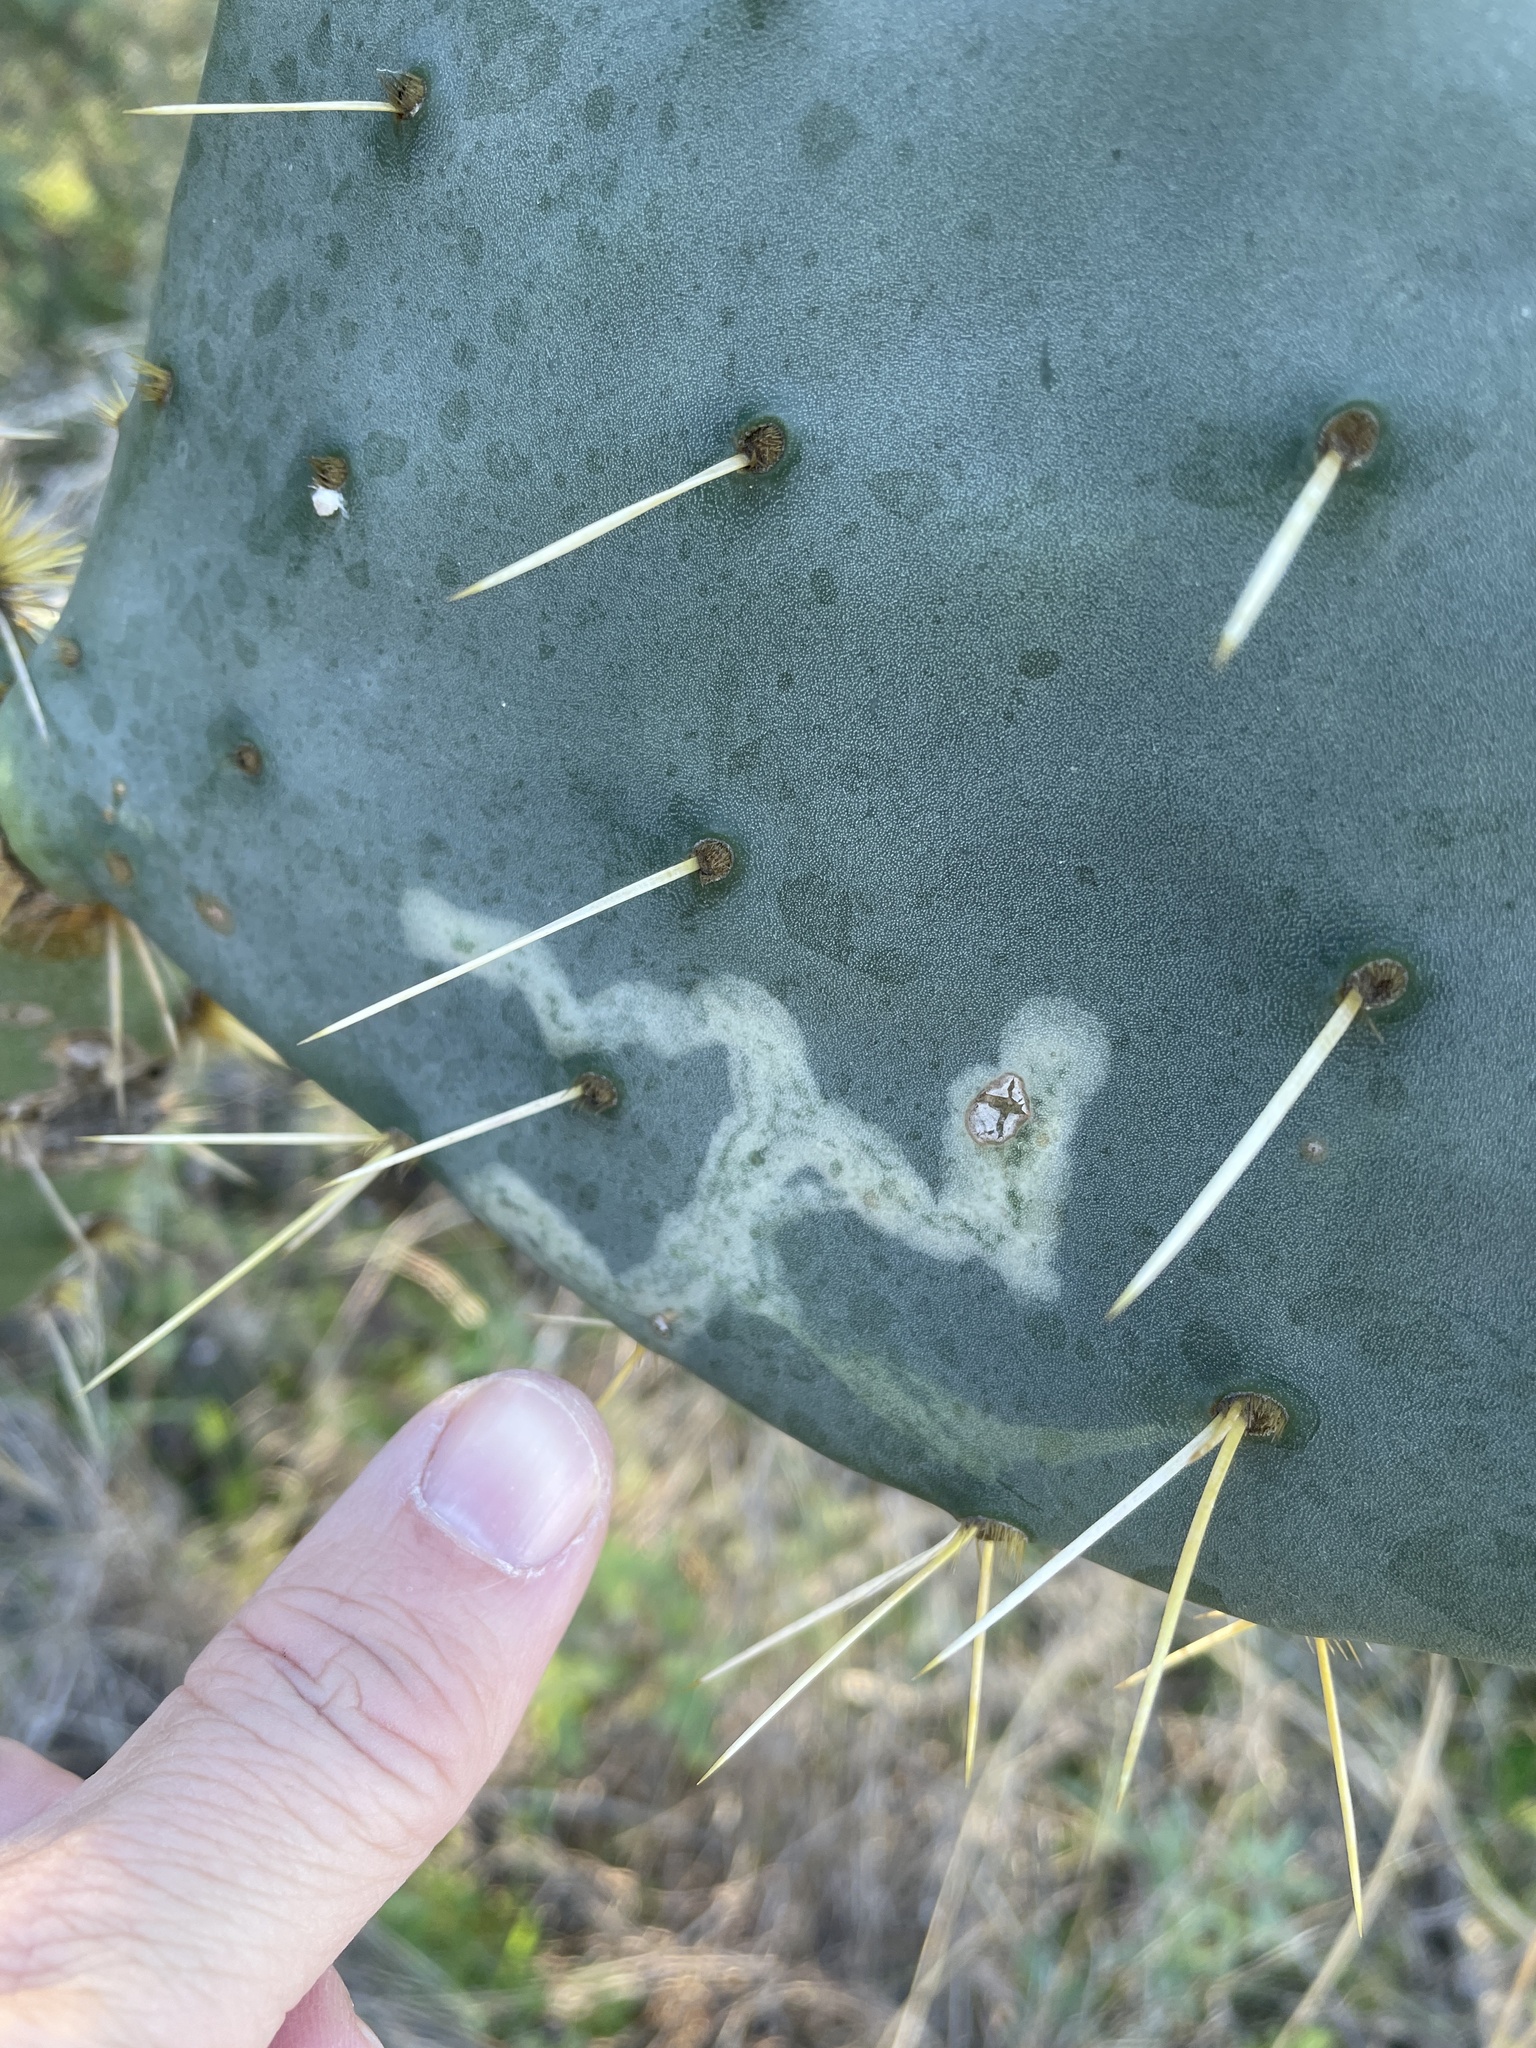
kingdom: Animalia
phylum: Arthropoda
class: Insecta
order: Lepidoptera
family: Gracillariidae
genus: Marmara
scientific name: Marmara opuntiella
